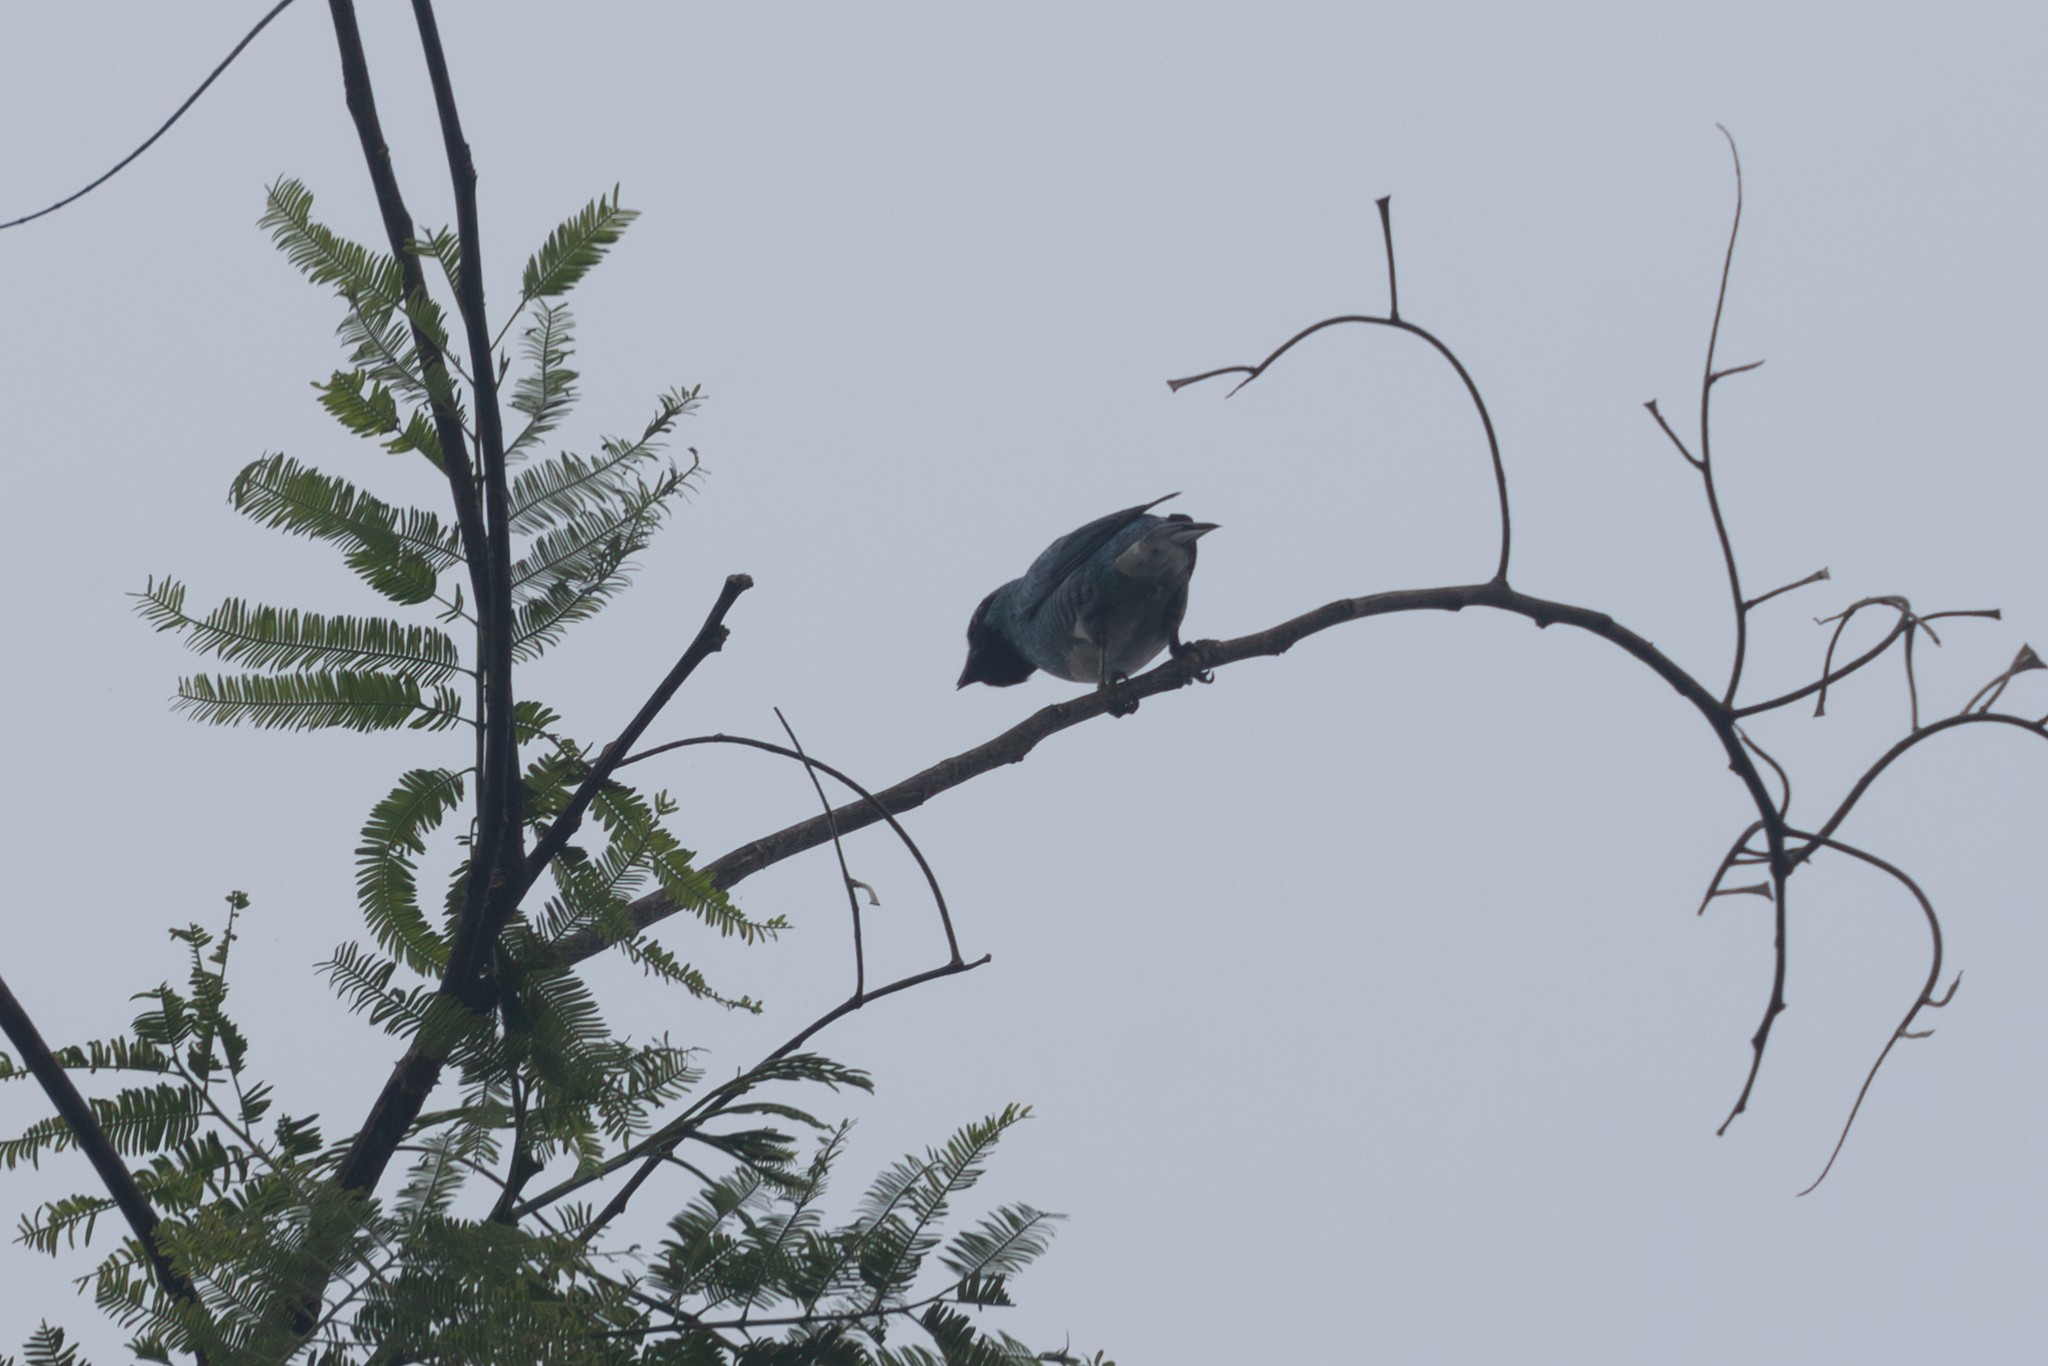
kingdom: Animalia
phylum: Chordata
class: Aves
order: Passeriformes
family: Thraupidae
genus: Tersina
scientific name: Tersina viridis
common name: Swallow tanager
